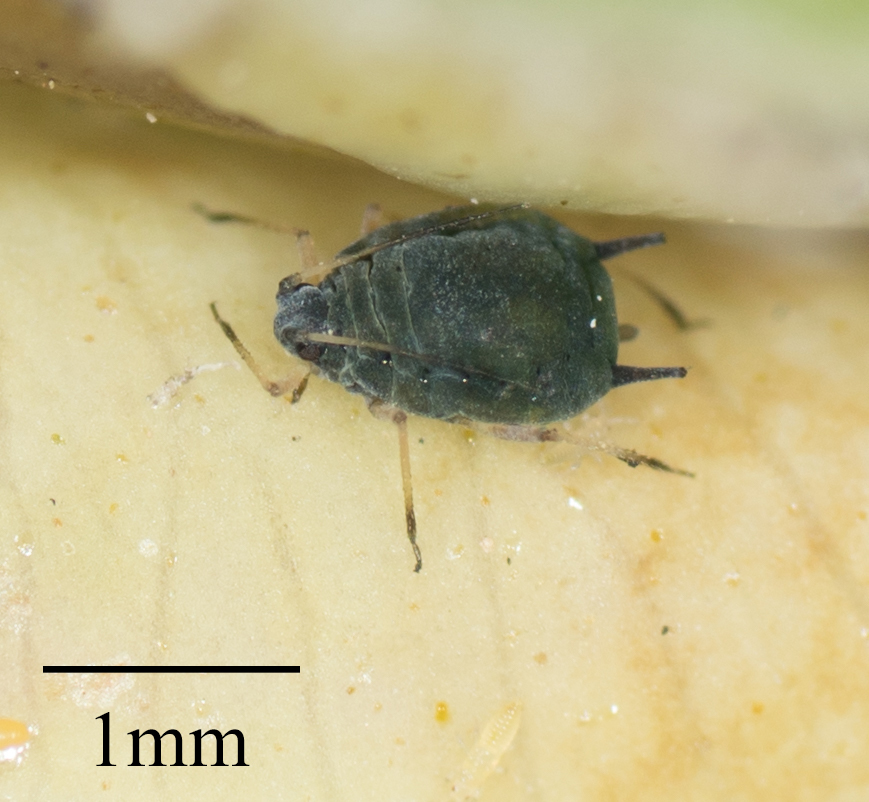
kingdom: Animalia
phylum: Arthropoda
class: Insecta
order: Hemiptera
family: Aphididae
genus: Aphis
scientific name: Aphis gossypii
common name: Melon aphid
